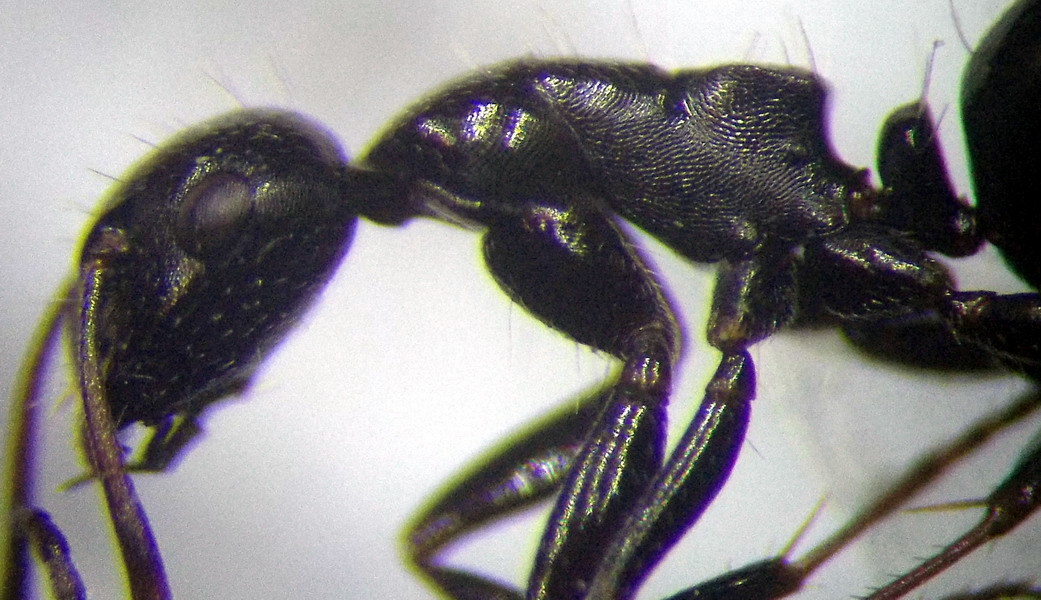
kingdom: Animalia
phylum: Arthropoda
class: Insecta
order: Hymenoptera
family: Formicidae
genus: Camponotus
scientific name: Camponotus piceus
